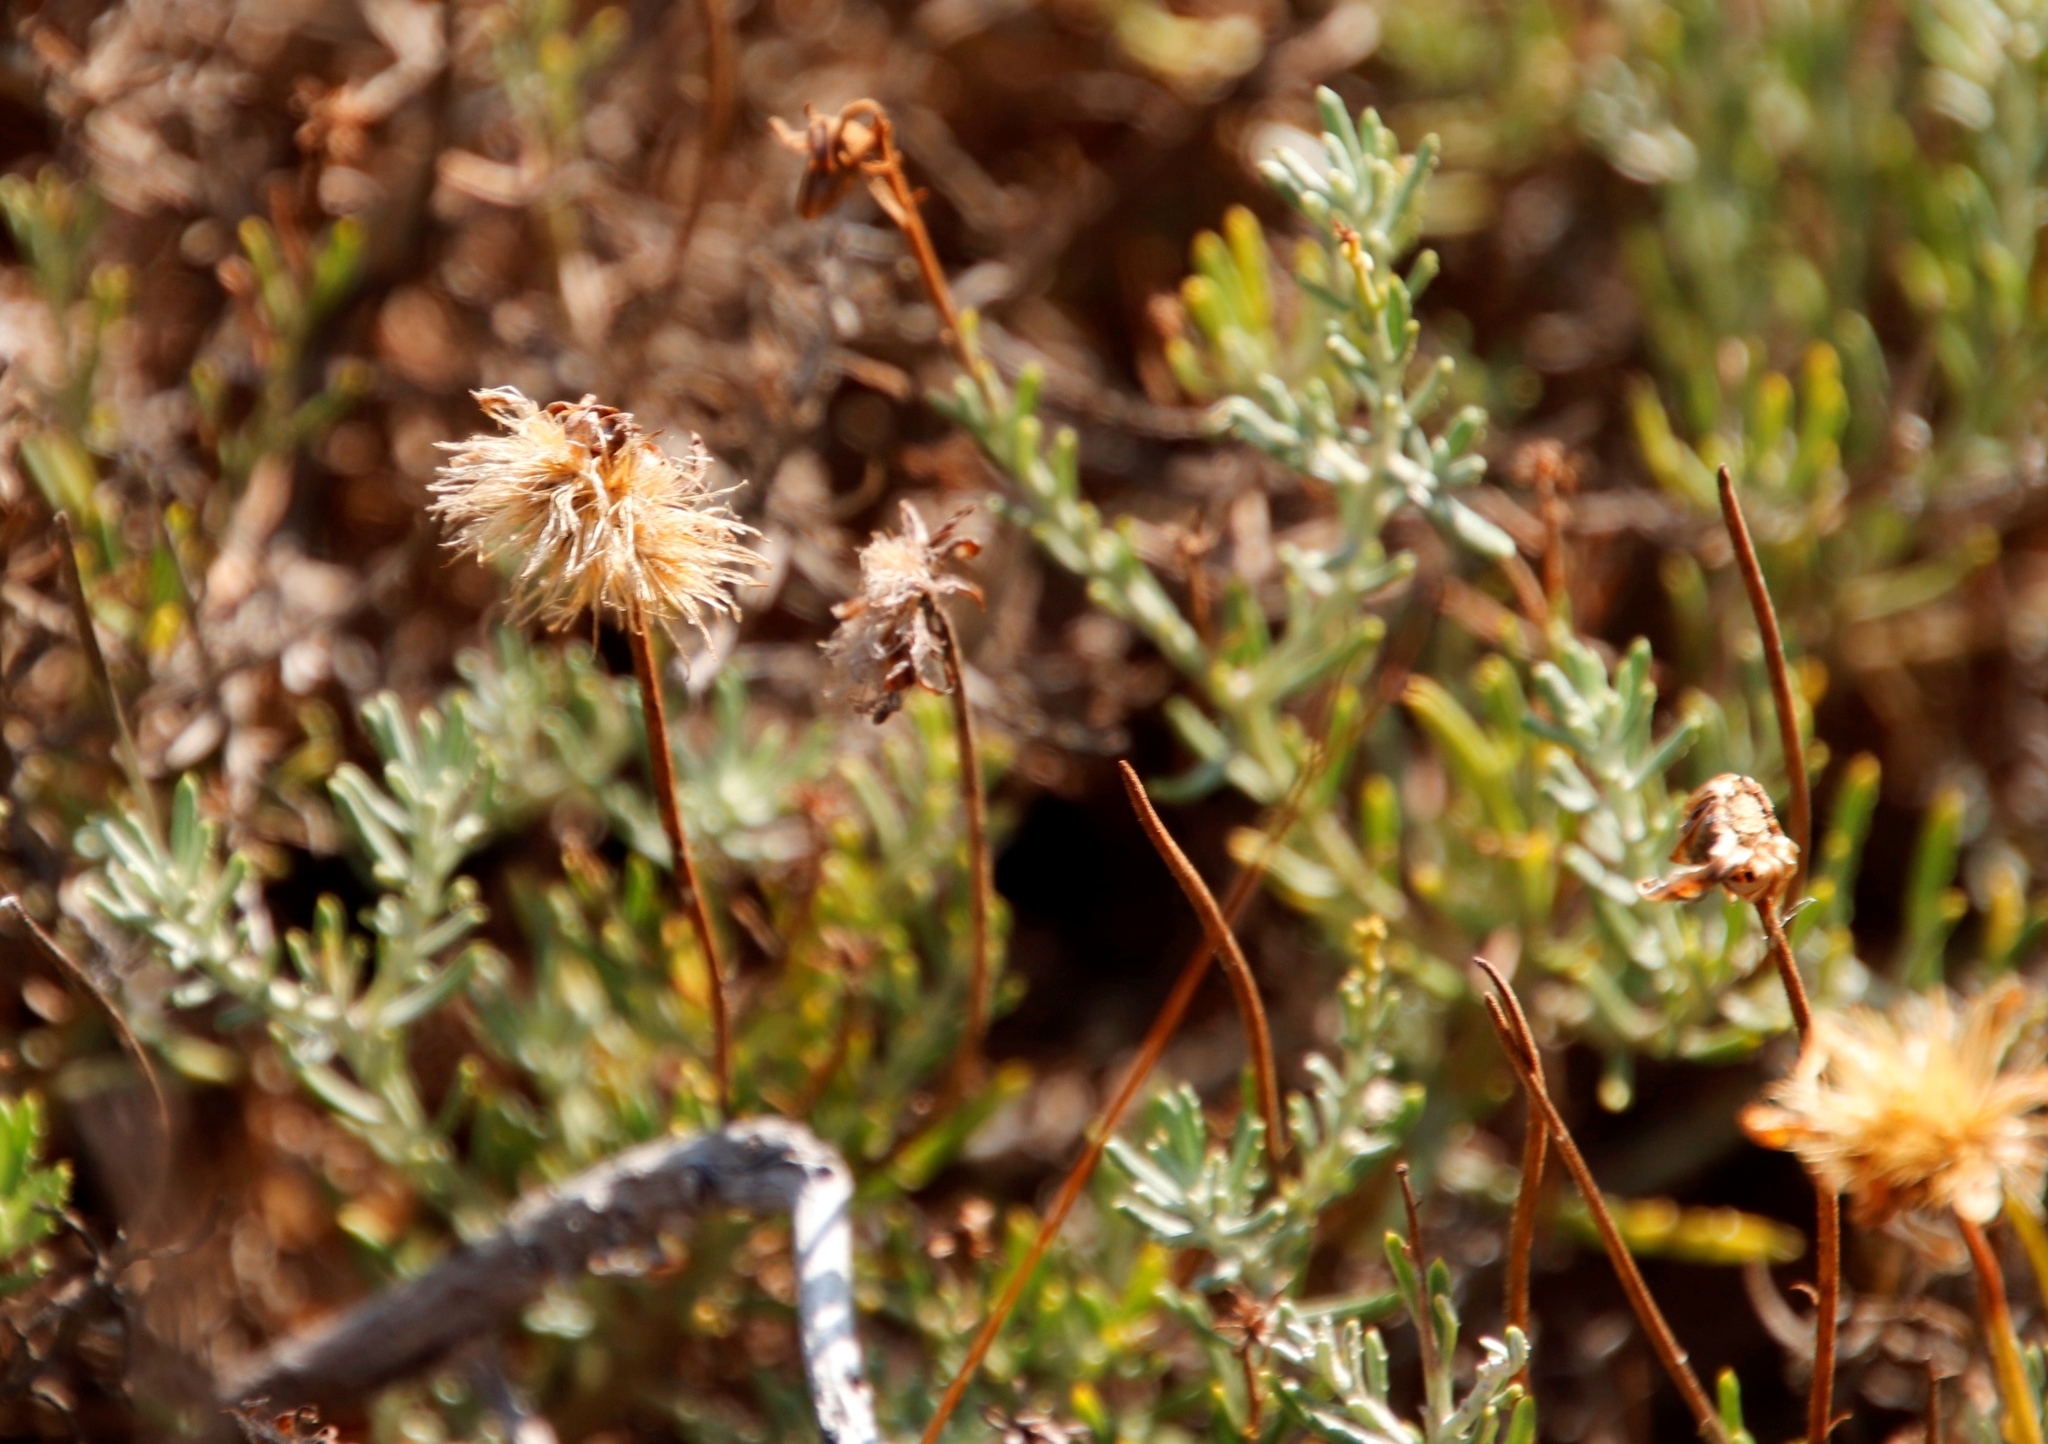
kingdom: Plantae
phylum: Tracheophyta
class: Magnoliopsida
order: Asterales
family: Asteraceae
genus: Heterolepis
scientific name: Heterolepis peduncularis
